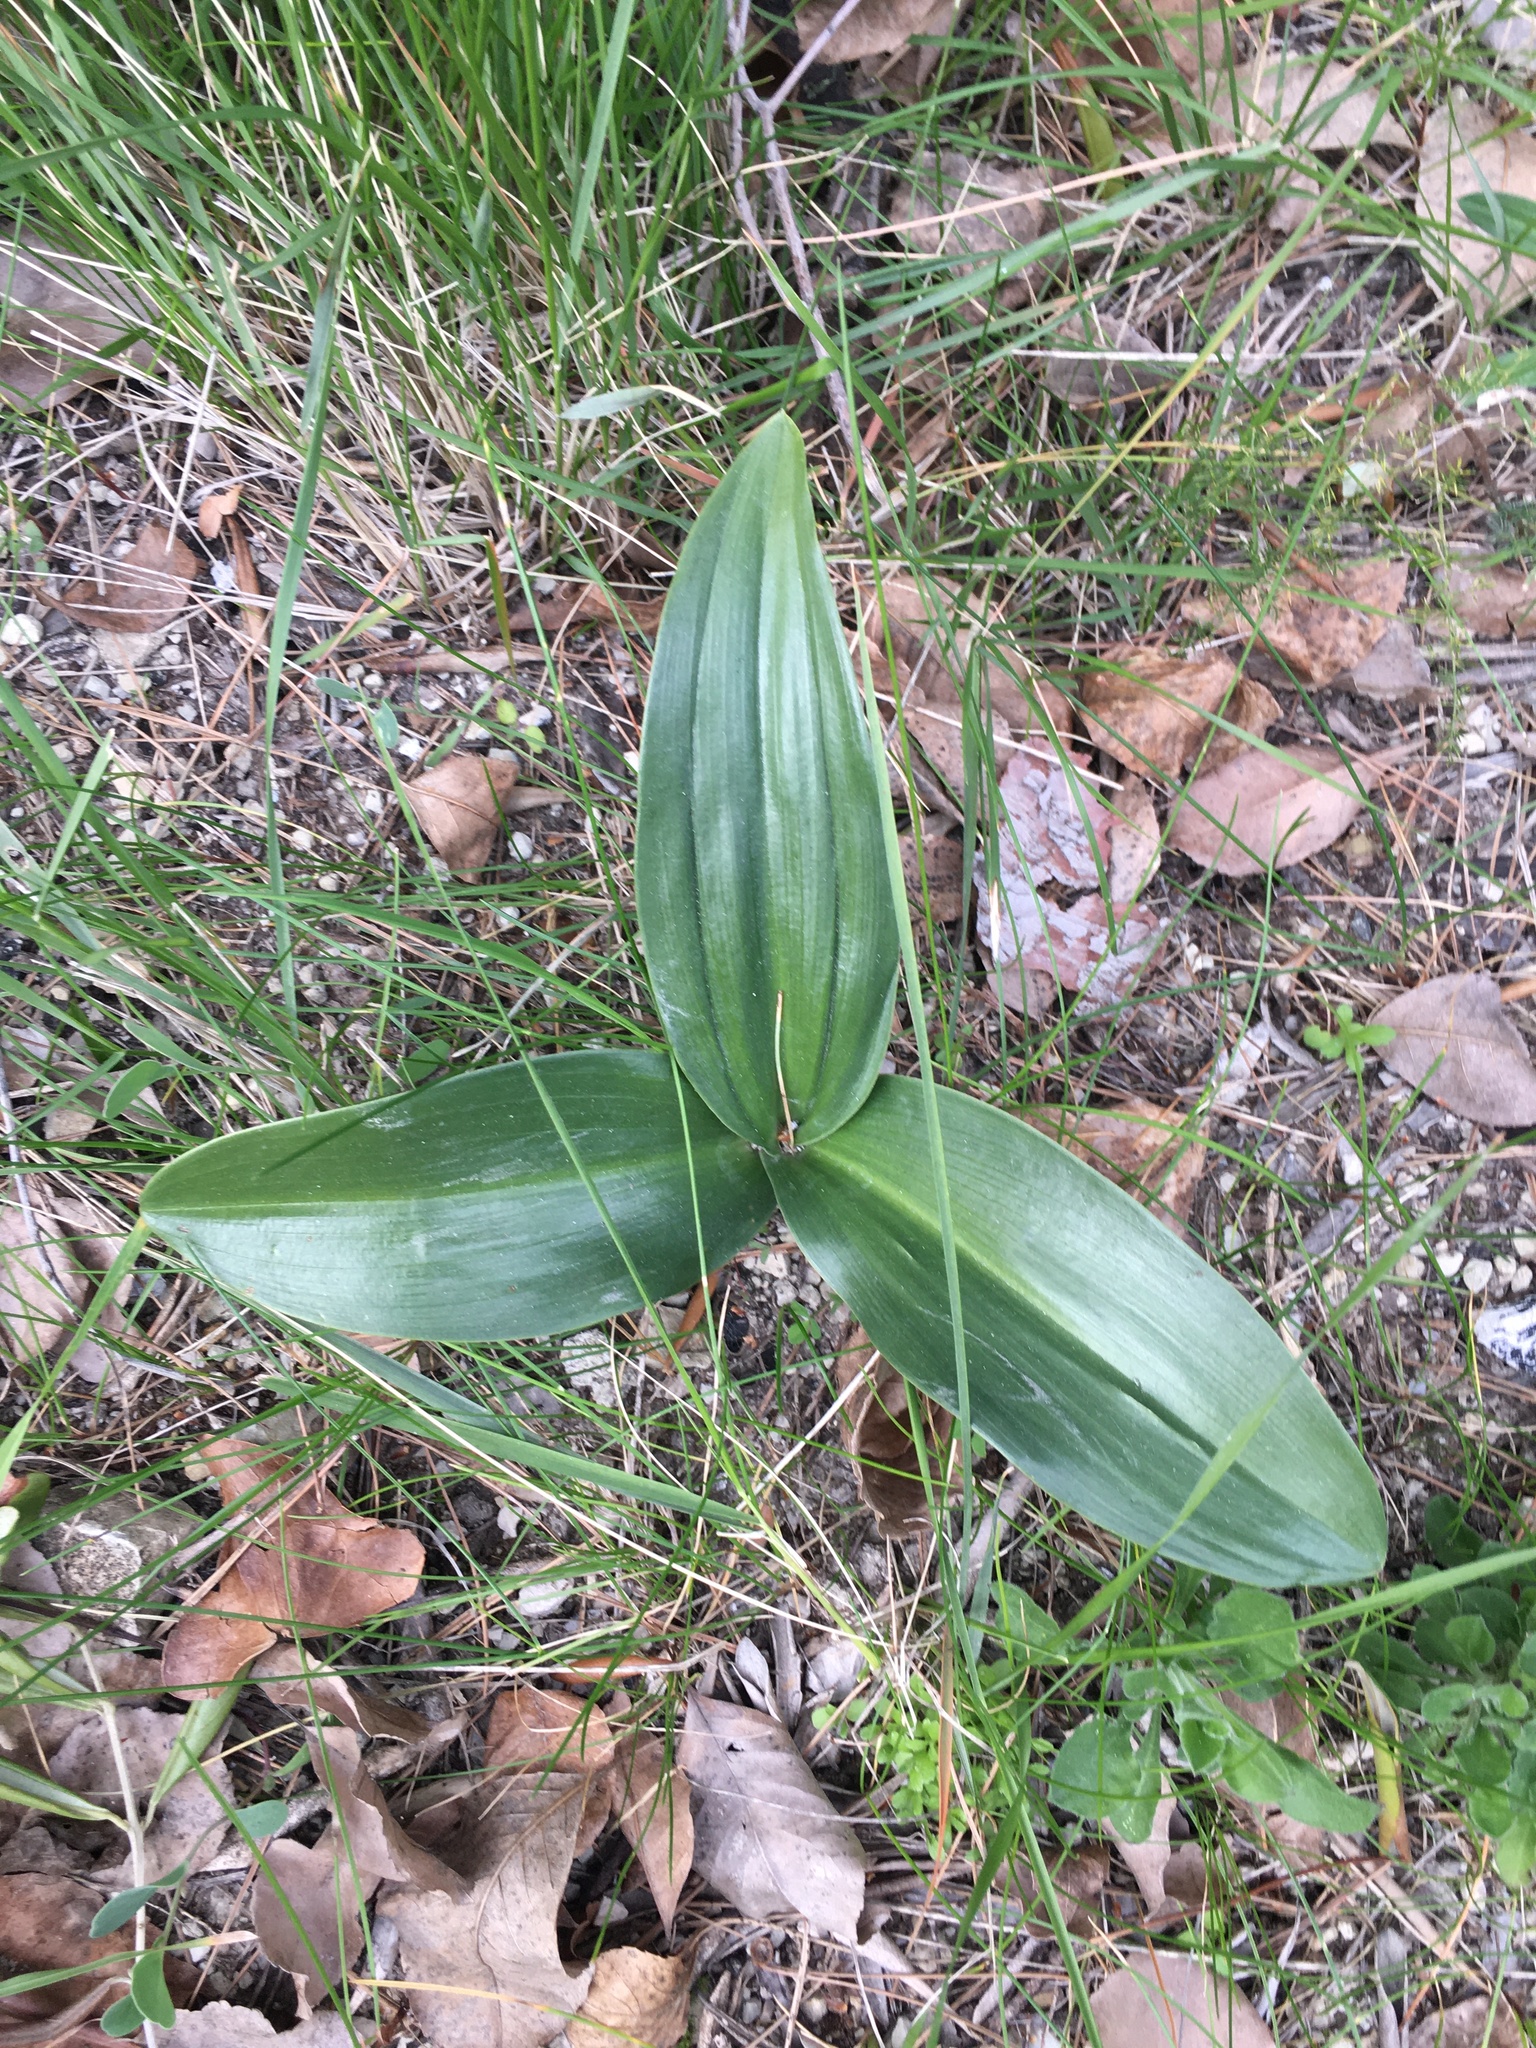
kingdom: Plantae
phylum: Tracheophyta
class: Liliopsida
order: Asparagales
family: Orchidaceae
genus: Himantoglossum
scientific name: Himantoglossum robertianum
